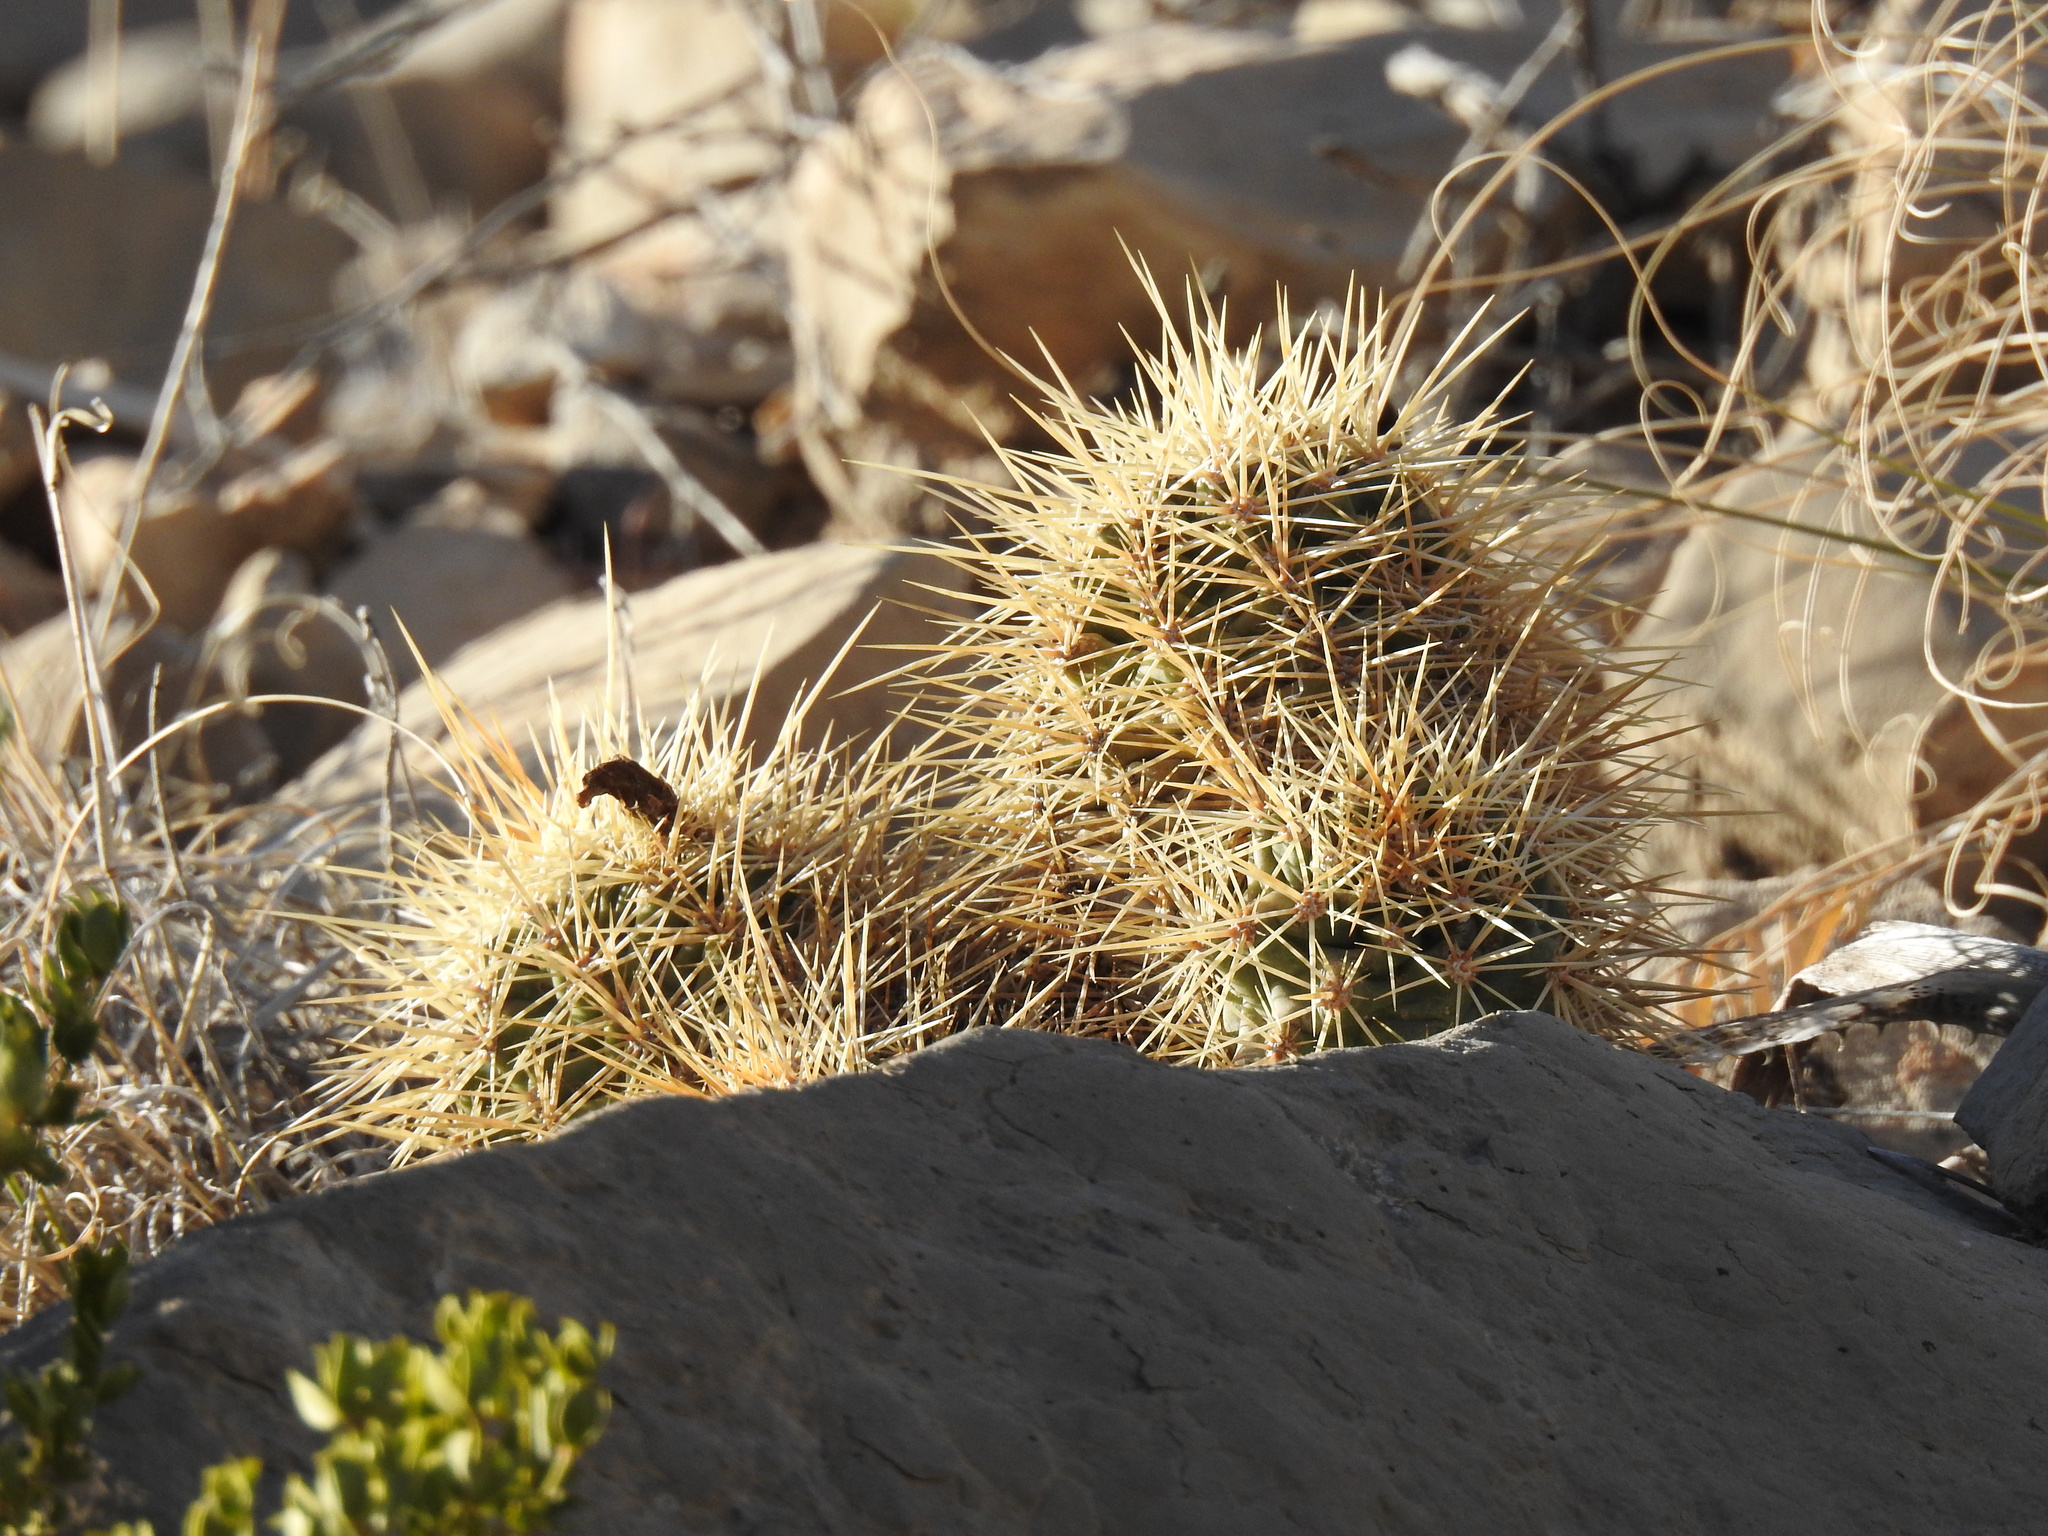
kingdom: Plantae
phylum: Tracheophyta
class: Magnoliopsida
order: Caryophyllales
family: Cactaceae
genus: Echinocereus
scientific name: Echinocereus coccineus
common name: Scarlet hedgehog cactus
